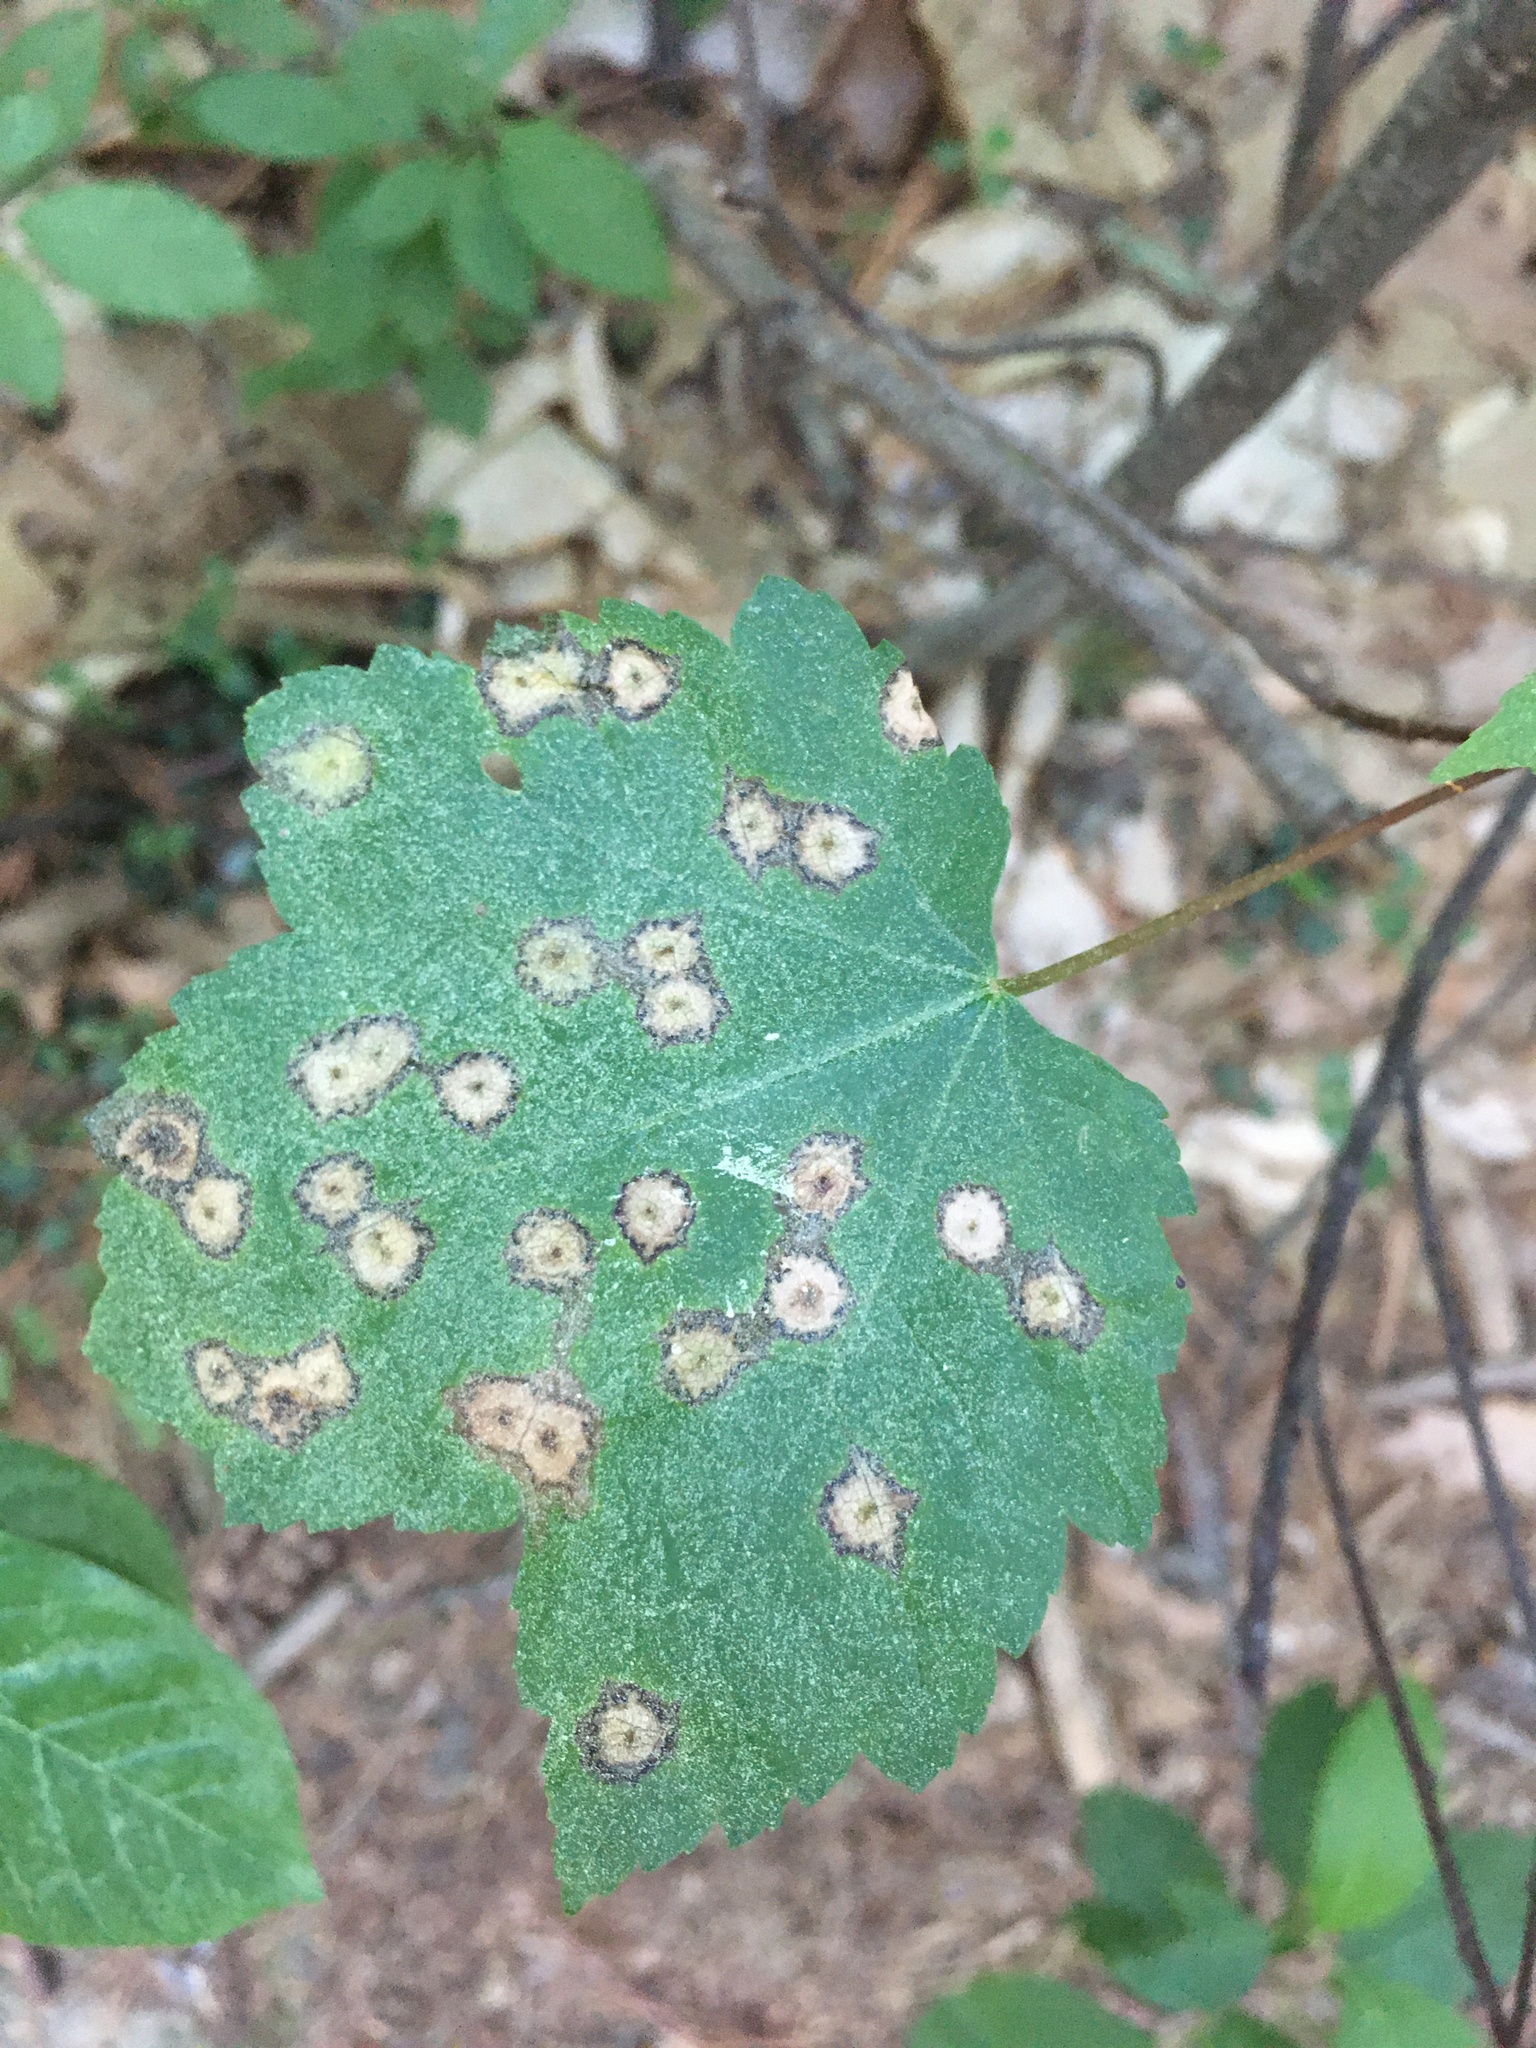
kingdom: Animalia
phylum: Arthropoda
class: Insecta
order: Diptera
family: Cecidomyiidae
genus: Acericecis
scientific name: Acericecis ocellaris
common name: Ocellate gall midge
